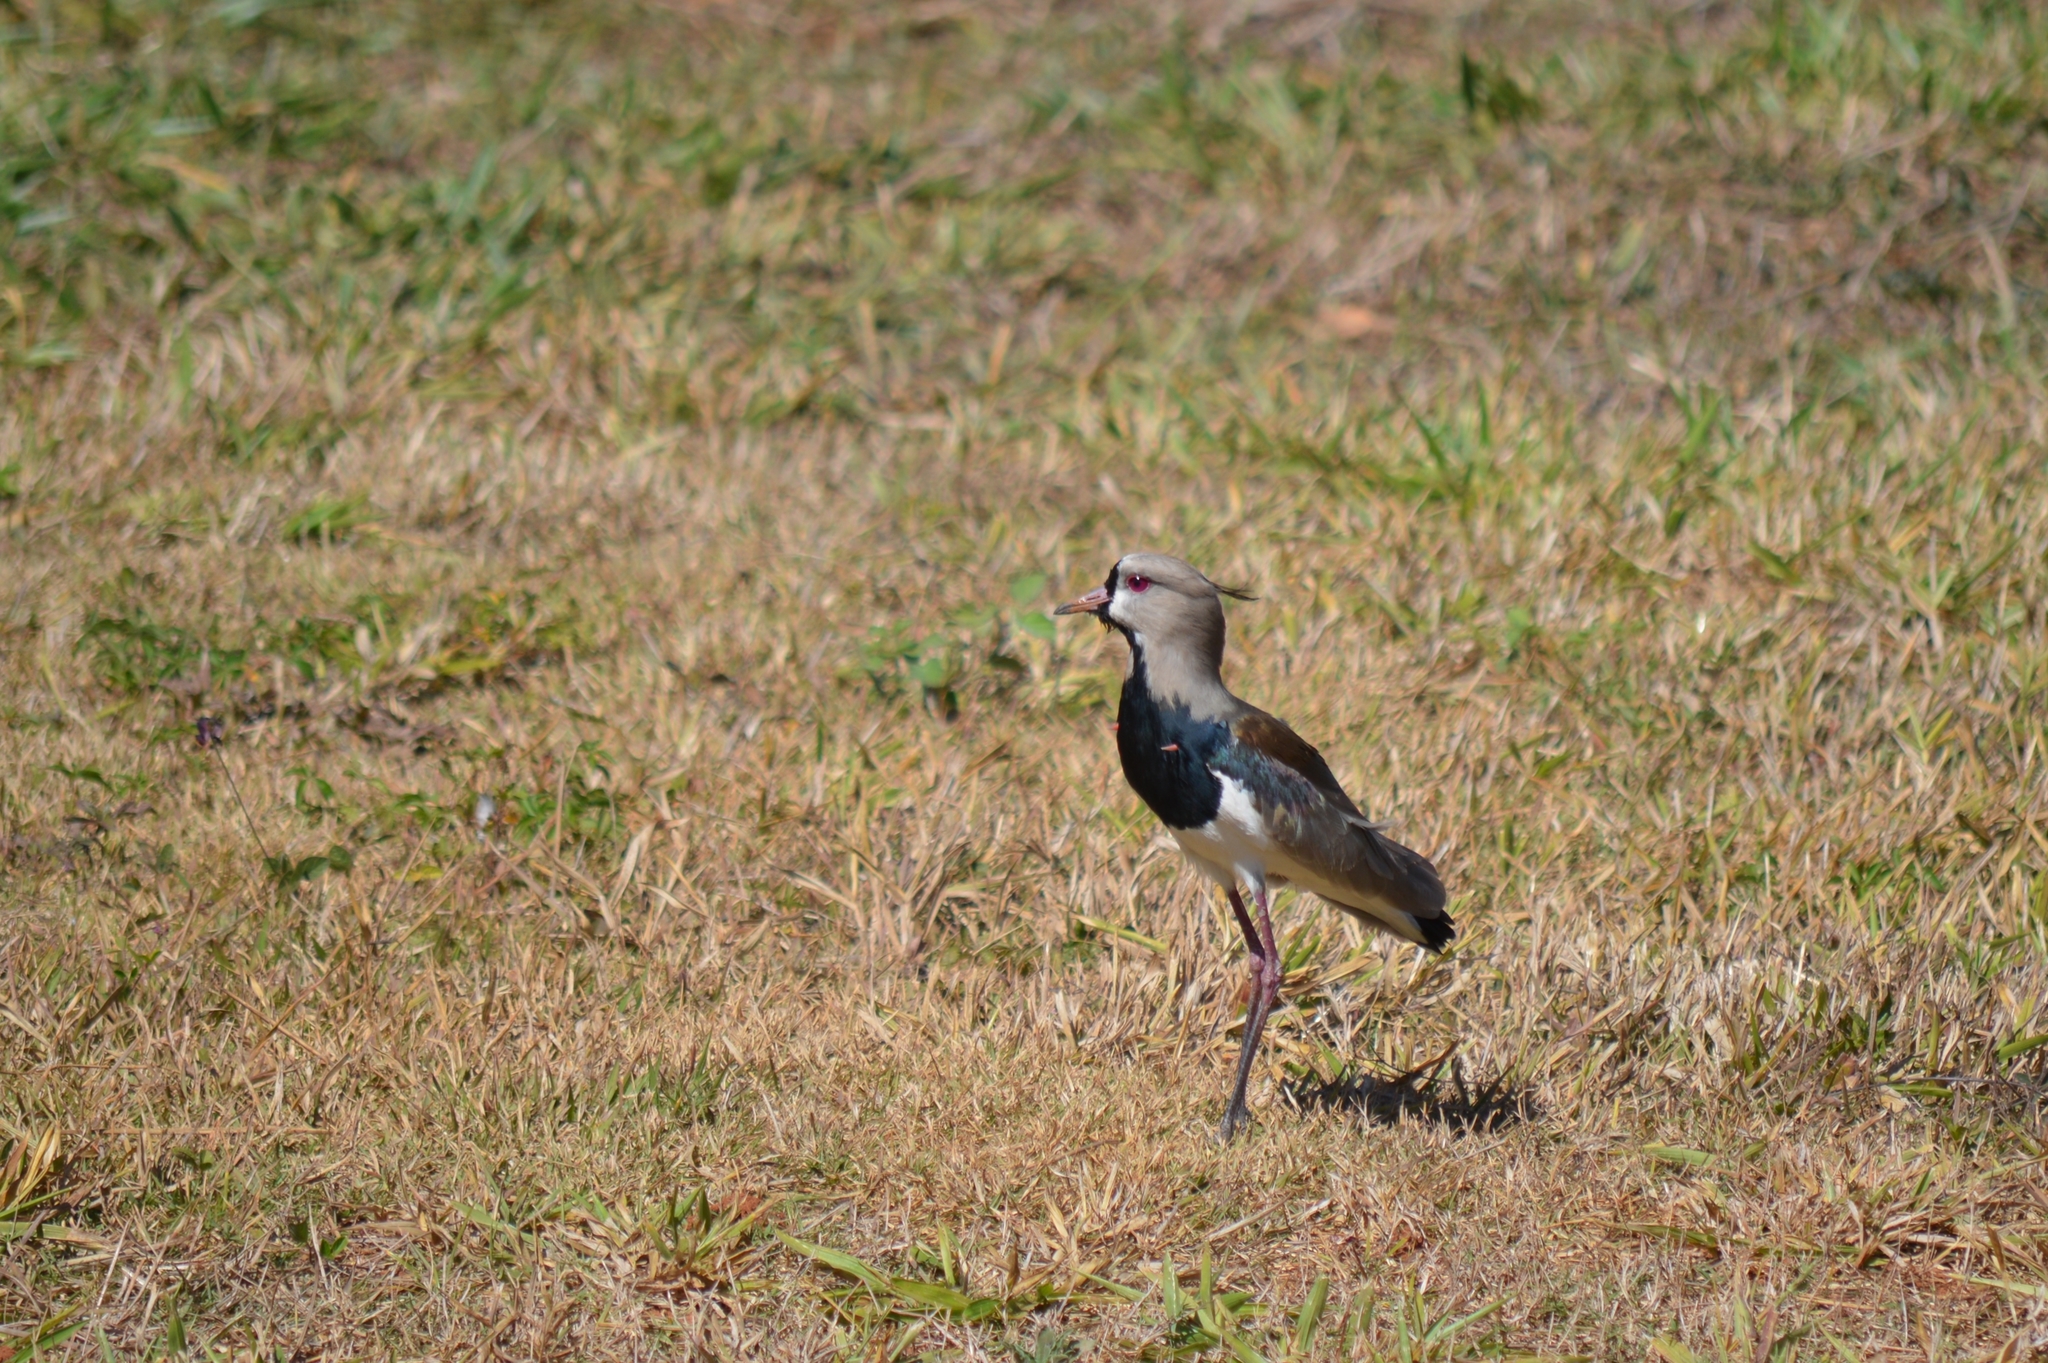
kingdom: Animalia
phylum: Chordata
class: Aves
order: Charadriiformes
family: Charadriidae
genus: Vanellus
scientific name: Vanellus chilensis
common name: Southern lapwing
